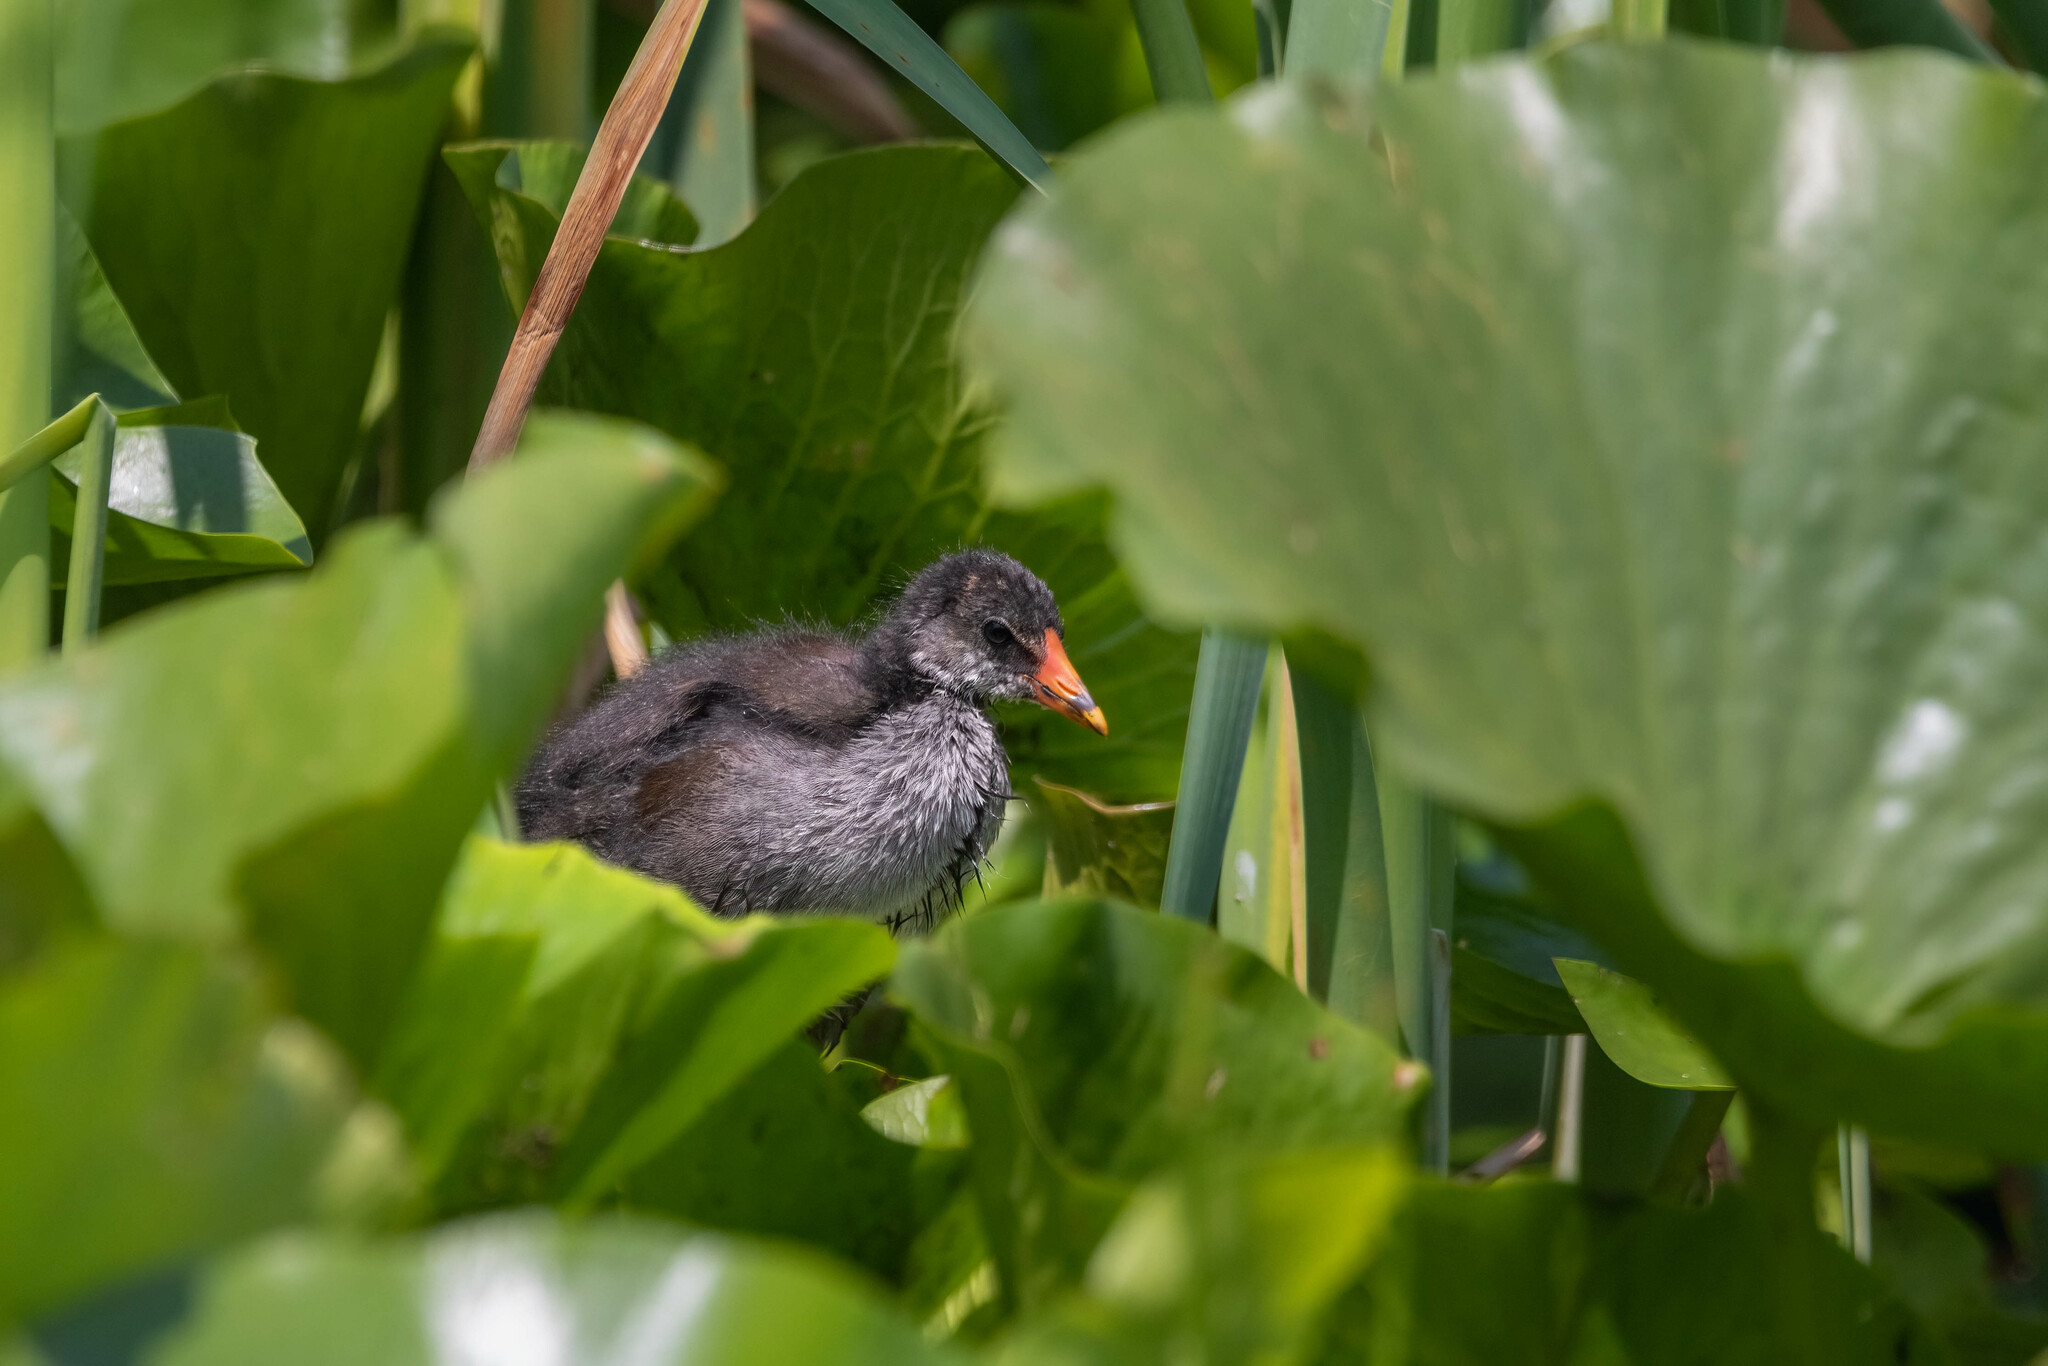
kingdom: Animalia
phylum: Chordata
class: Aves
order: Gruiformes
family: Rallidae
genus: Gallinula
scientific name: Gallinula chloropus
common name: Common moorhen
